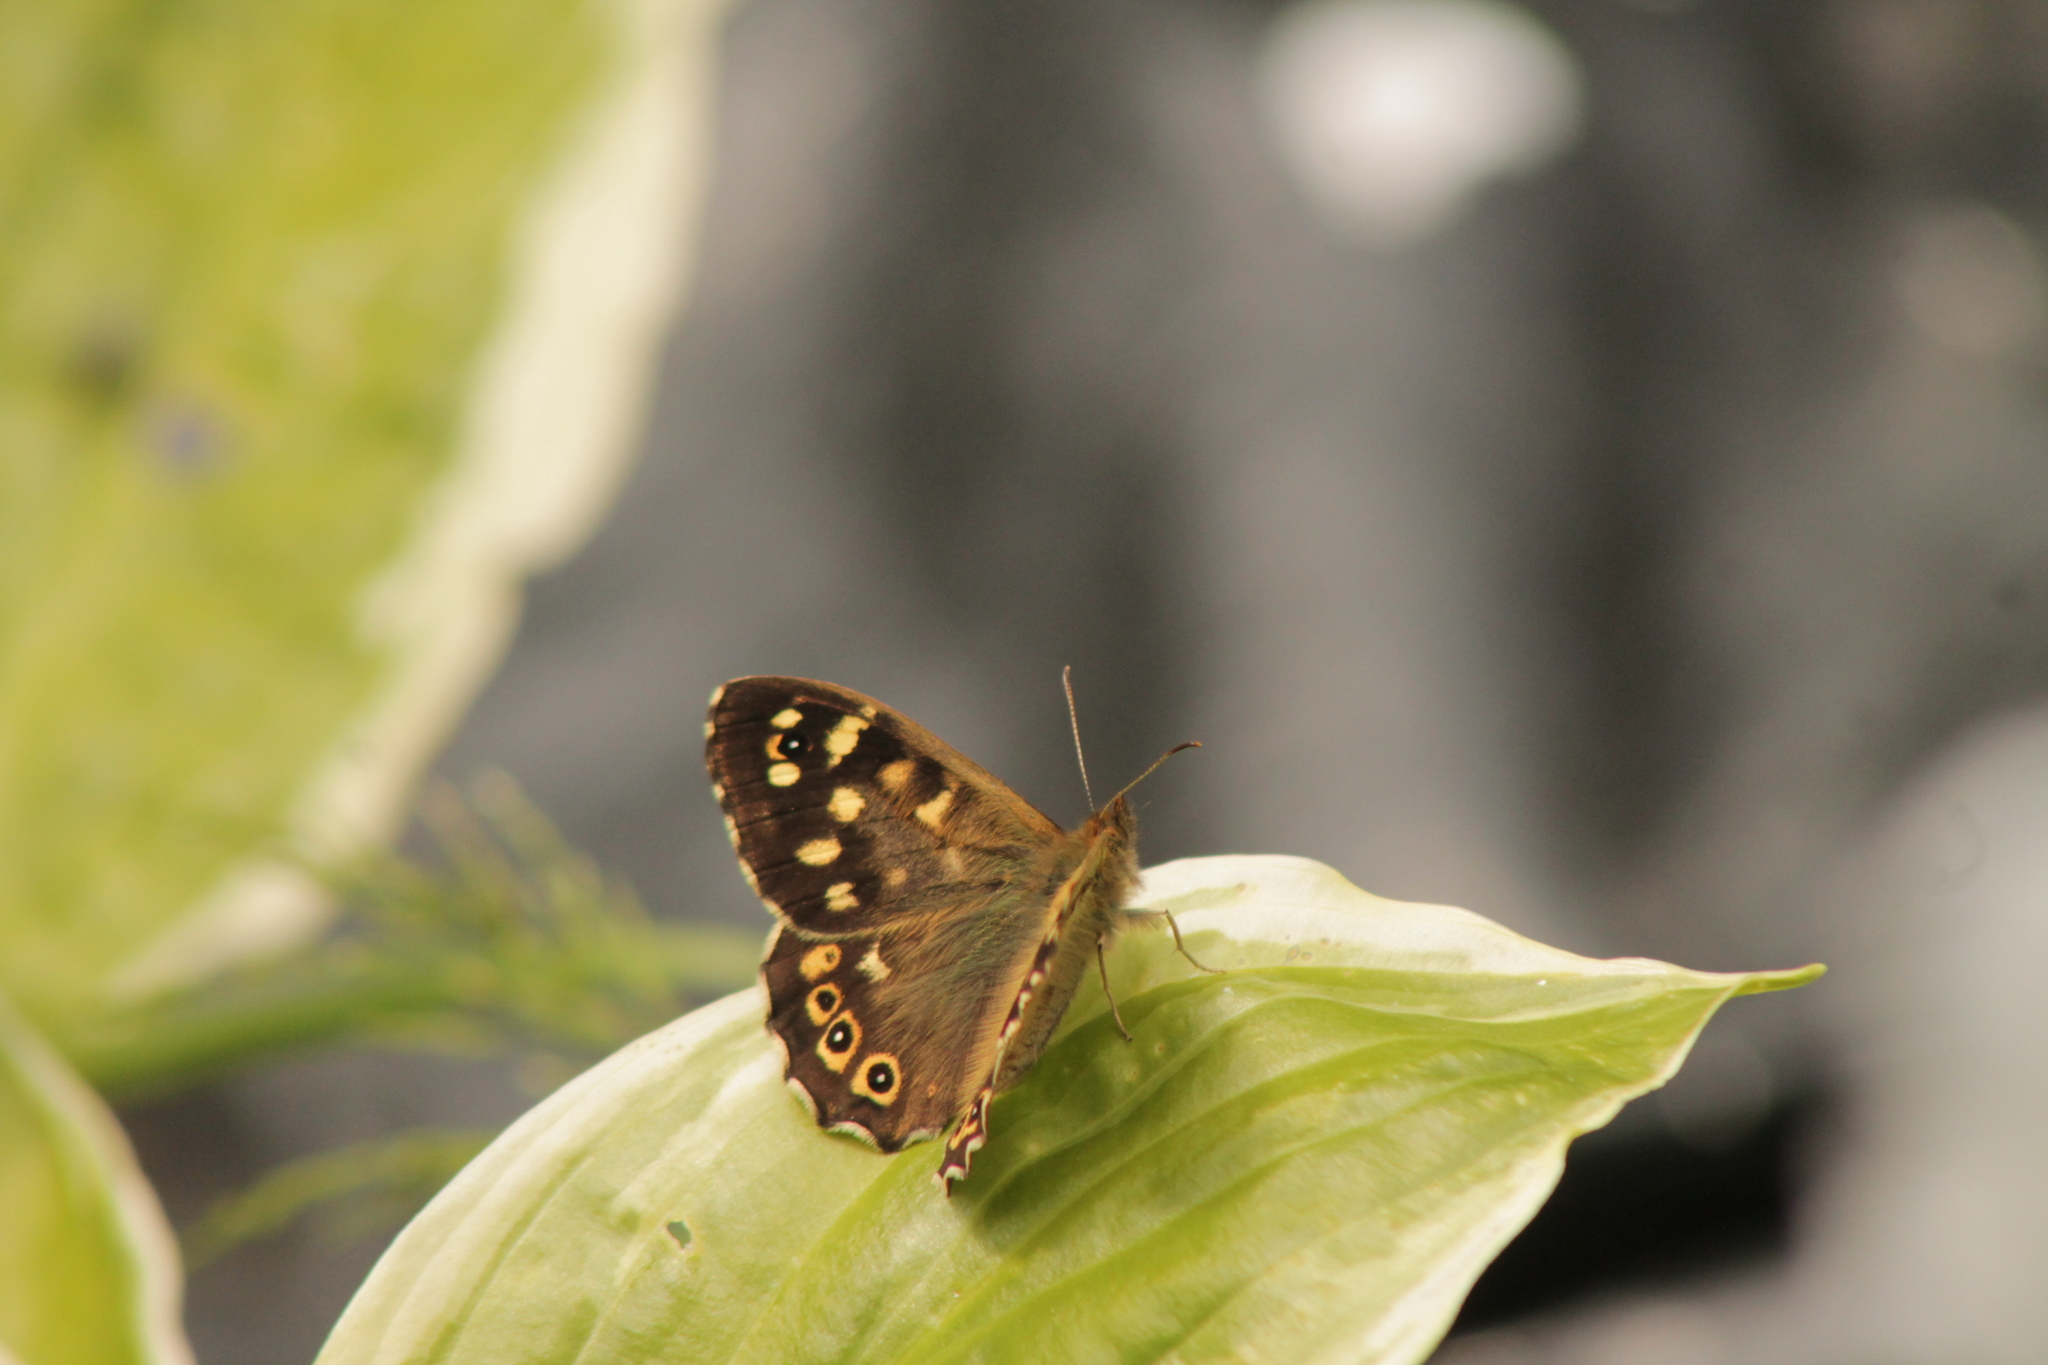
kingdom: Animalia
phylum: Arthropoda
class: Insecta
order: Lepidoptera
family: Nymphalidae
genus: Pararge
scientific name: Pararge aegeria
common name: Speckled wood
